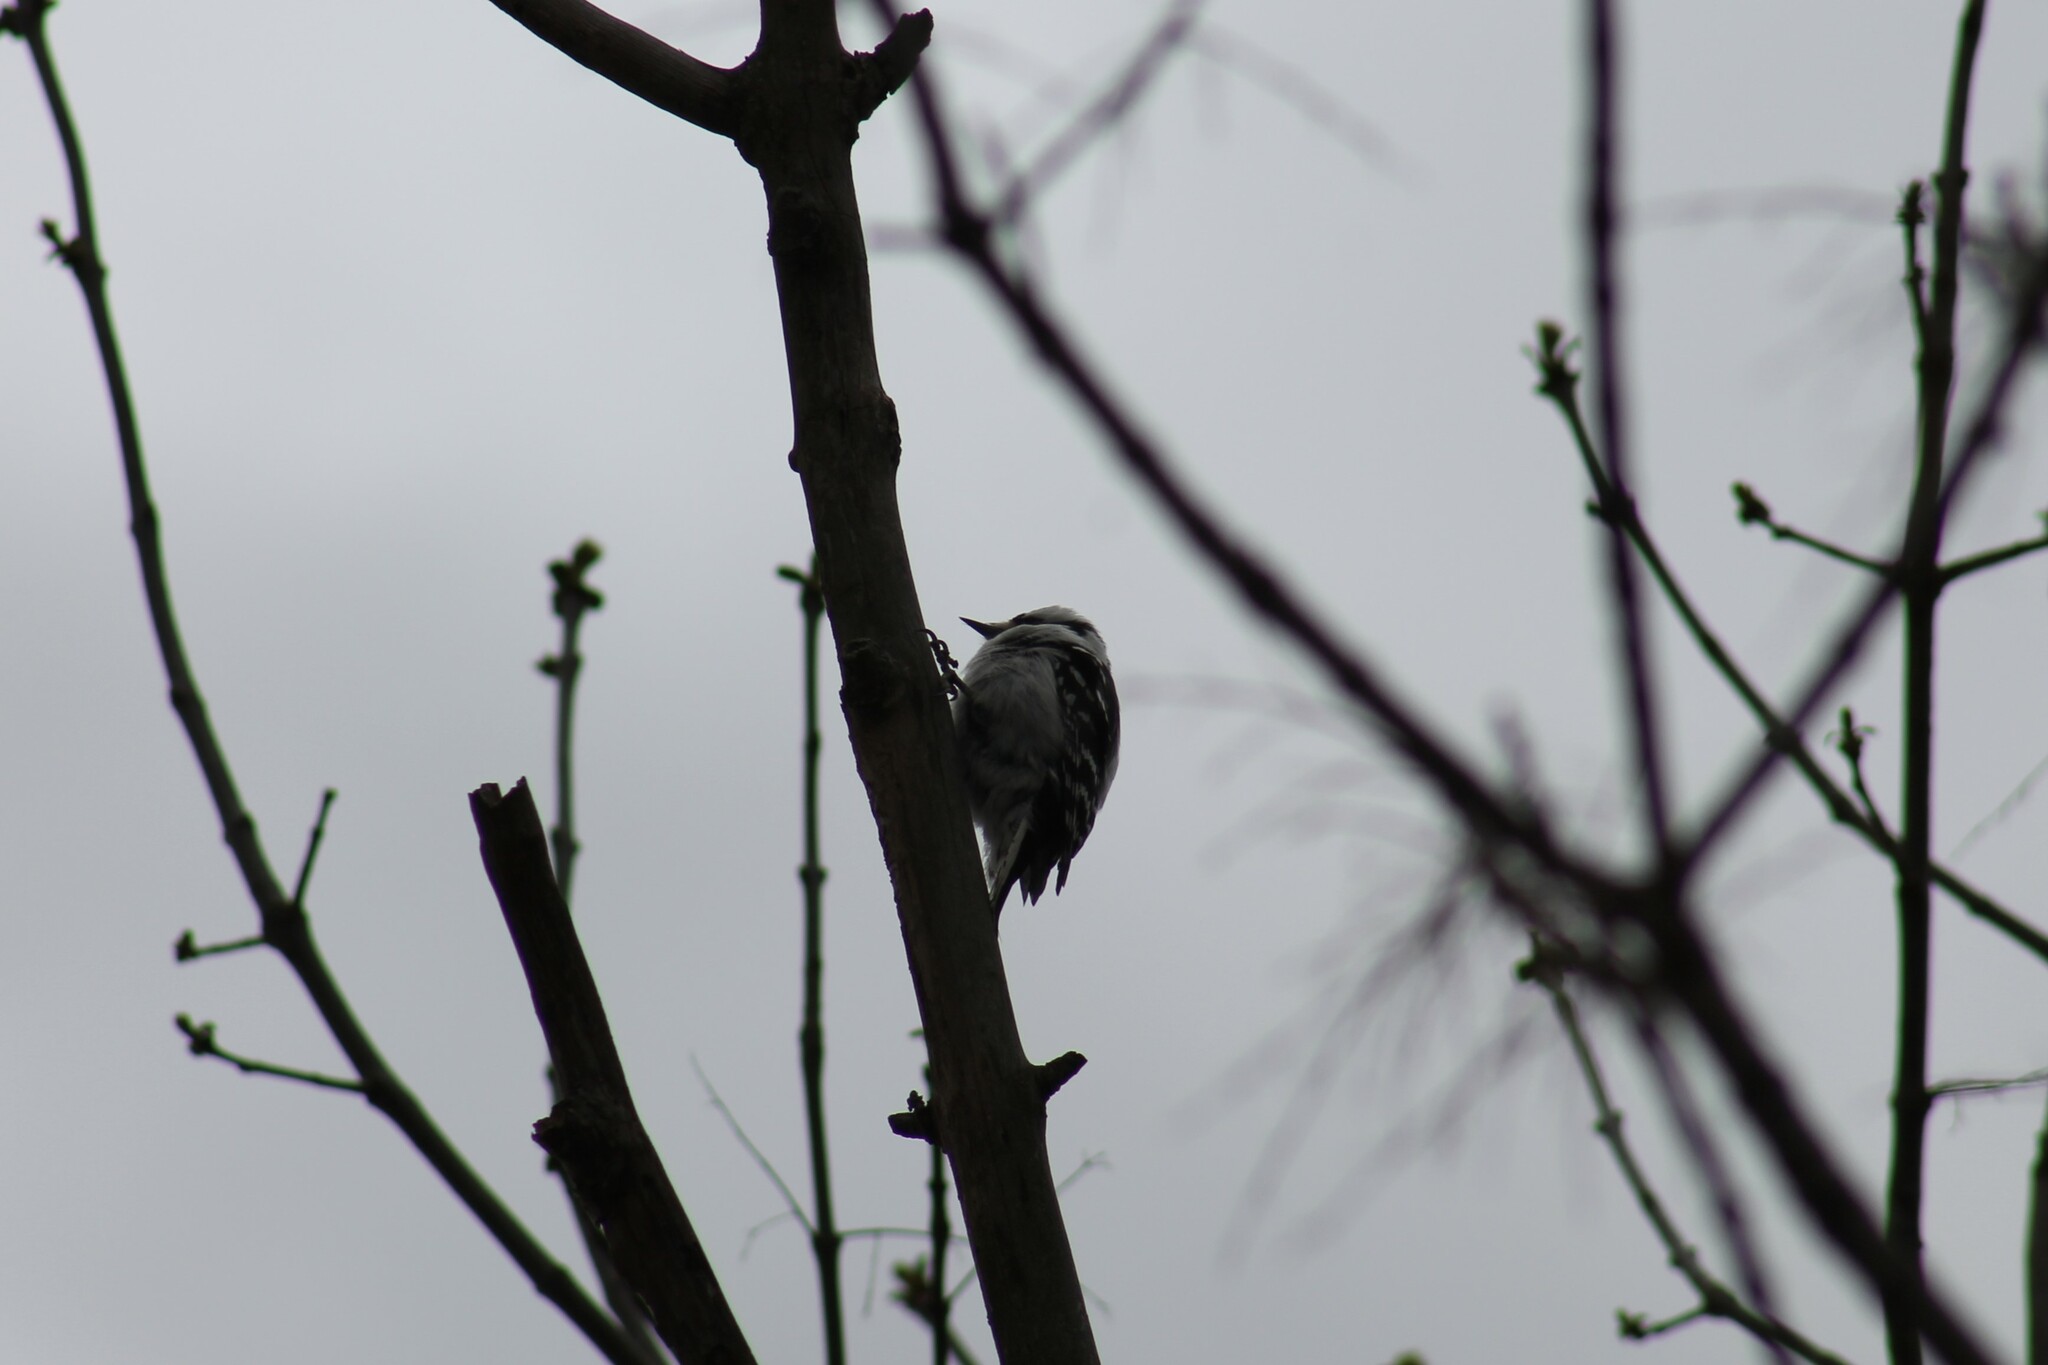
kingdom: Animalia
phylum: Chordata
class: Aves
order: Piciformes
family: Picidae
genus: Dryobates
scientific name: Dryobates pubescens
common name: Downy woodpecker
